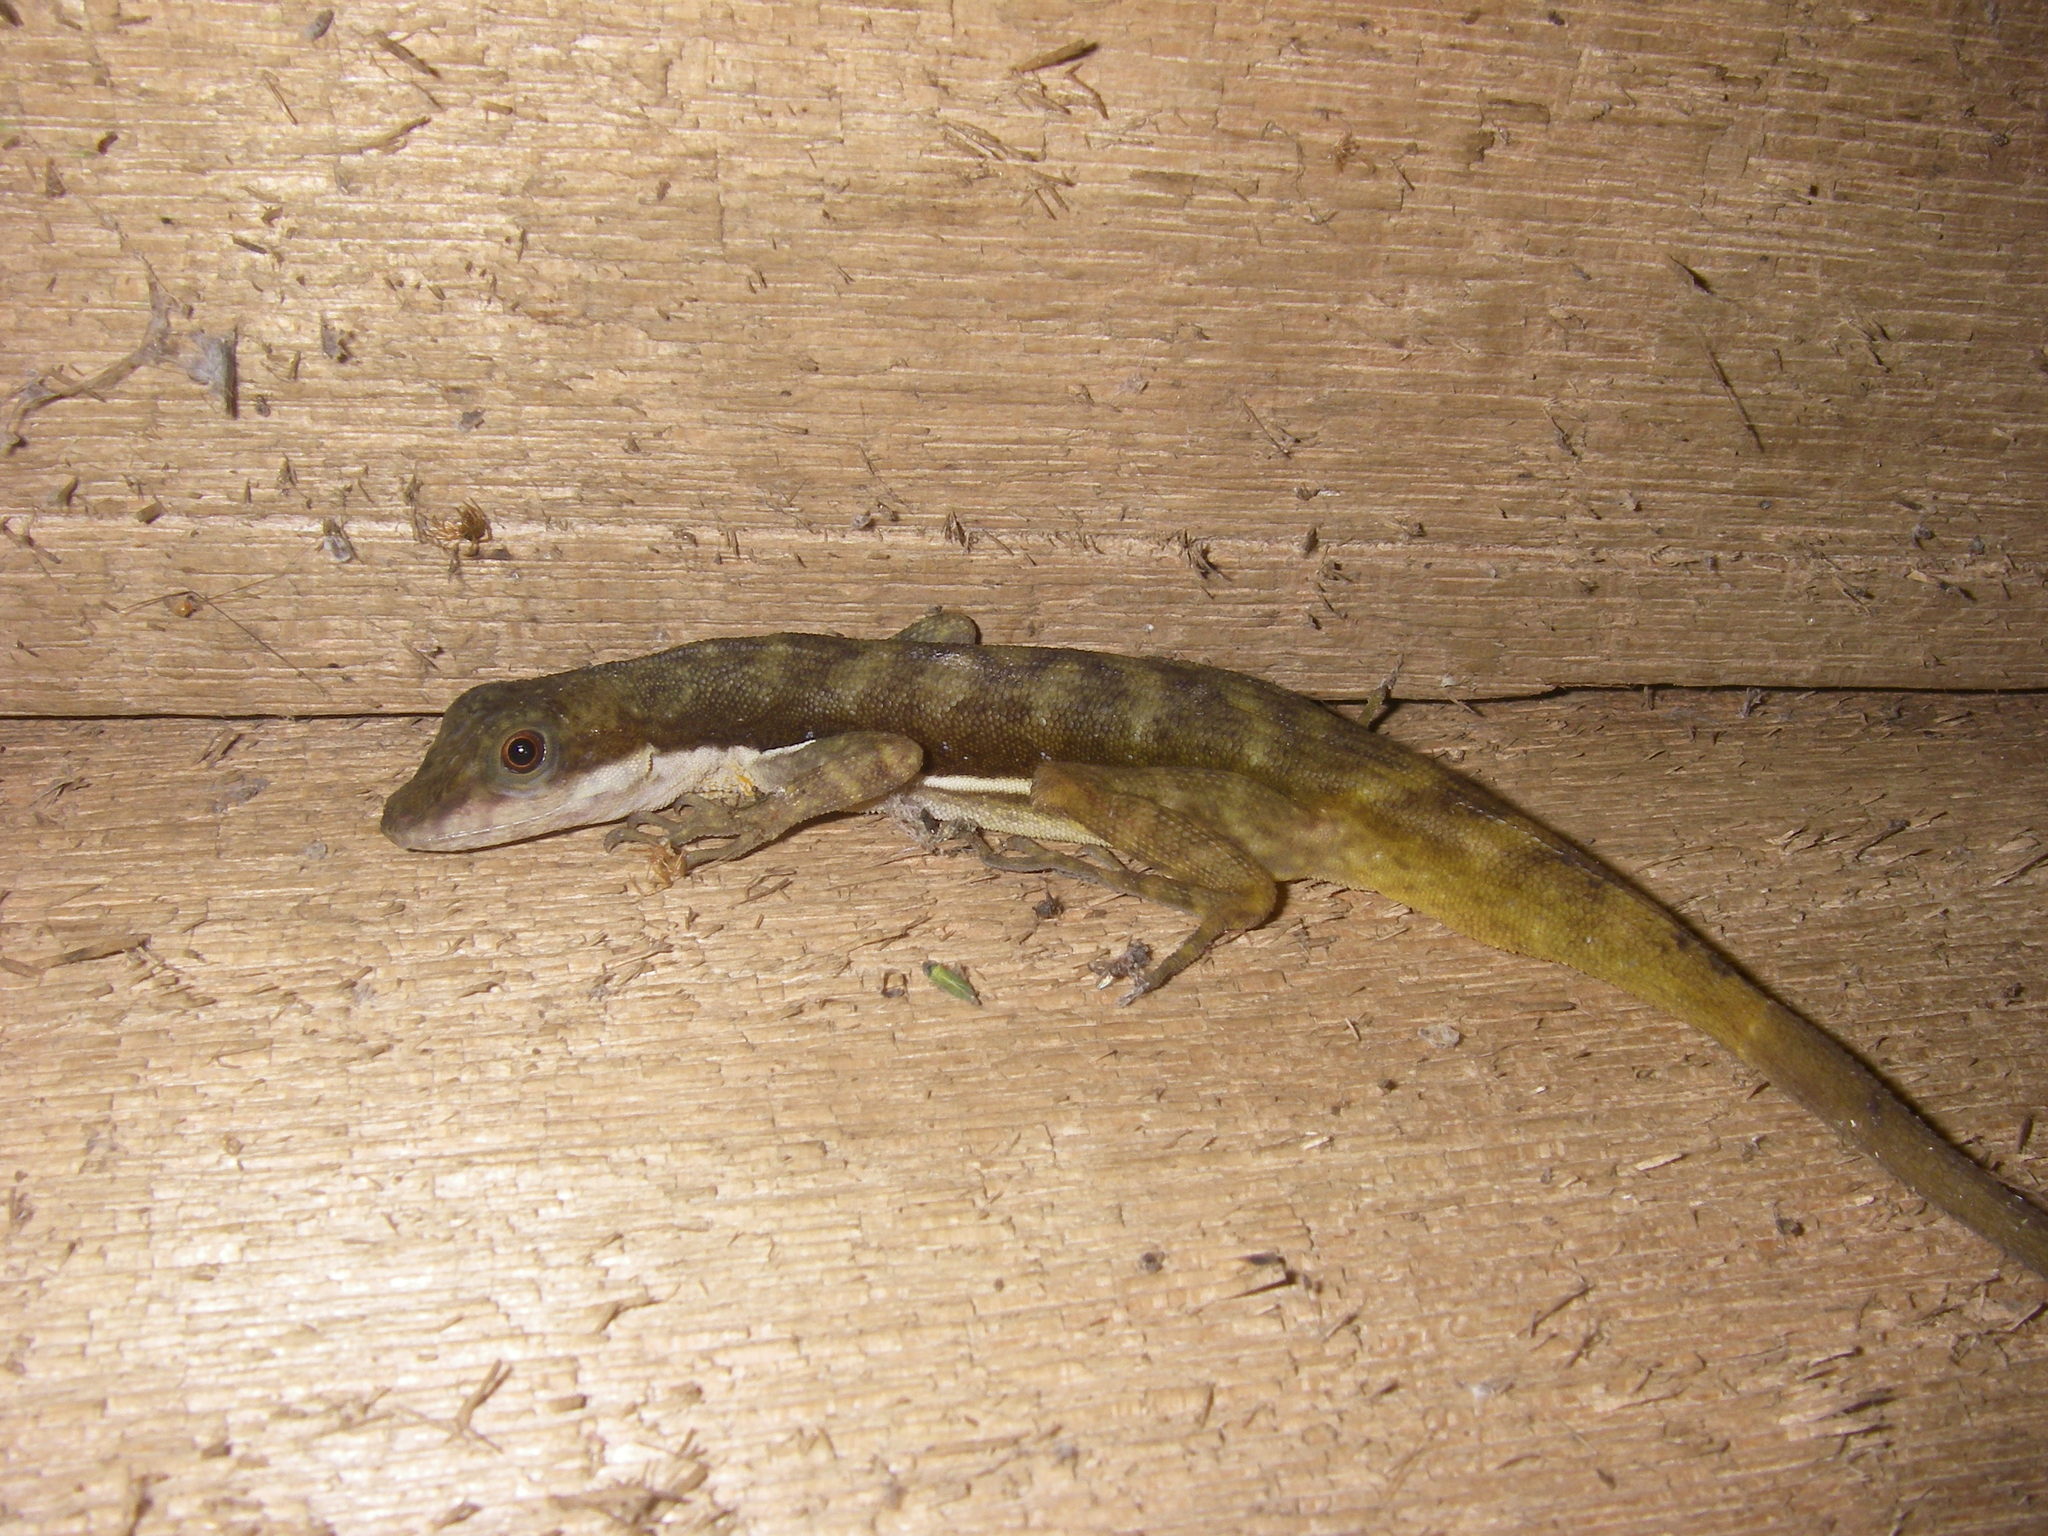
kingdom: Animalia
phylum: Chordata
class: Squamata
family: Dactyloidae
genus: Anolis
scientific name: Anolis oxylophus
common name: Stream anole
